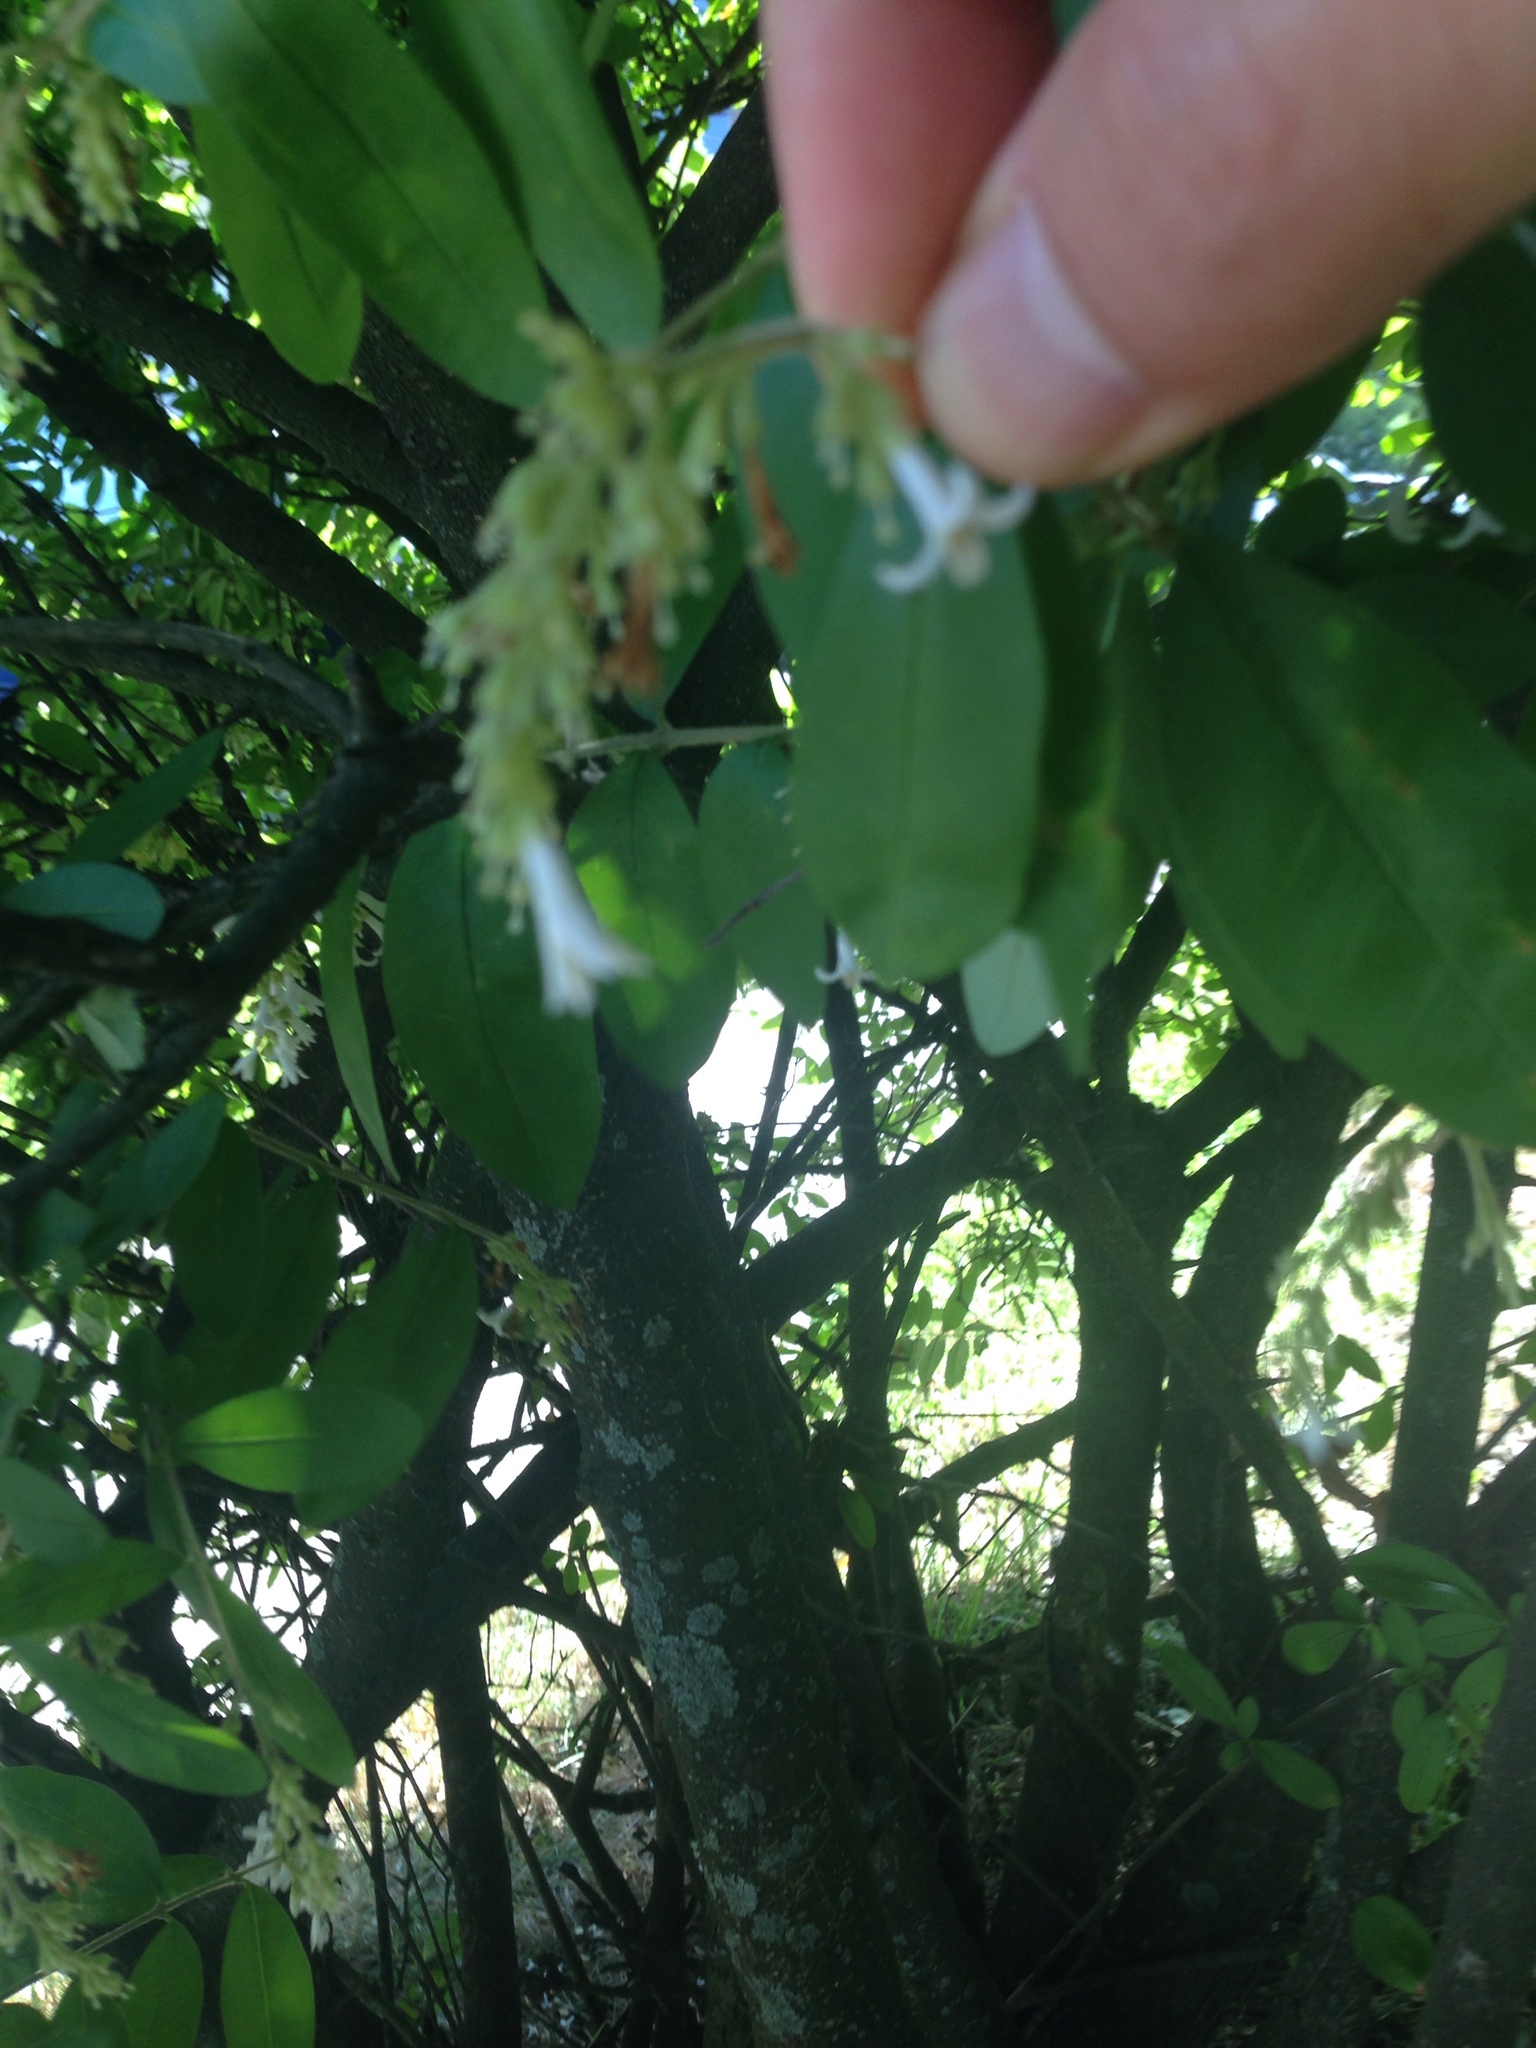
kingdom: Plantae
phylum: Tracheophyta
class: Magnoliopsida
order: Lamiales
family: Oleaceae
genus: Ligustrum
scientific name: Ligustrum obtusifolium
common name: Border privet
